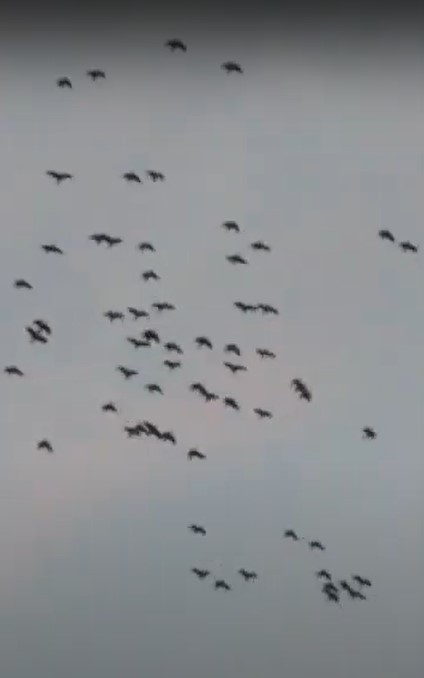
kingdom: Animalia
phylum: Chordata
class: Aves
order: Psittaciformes
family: Psittacidae
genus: Amazona
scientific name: Amazona
